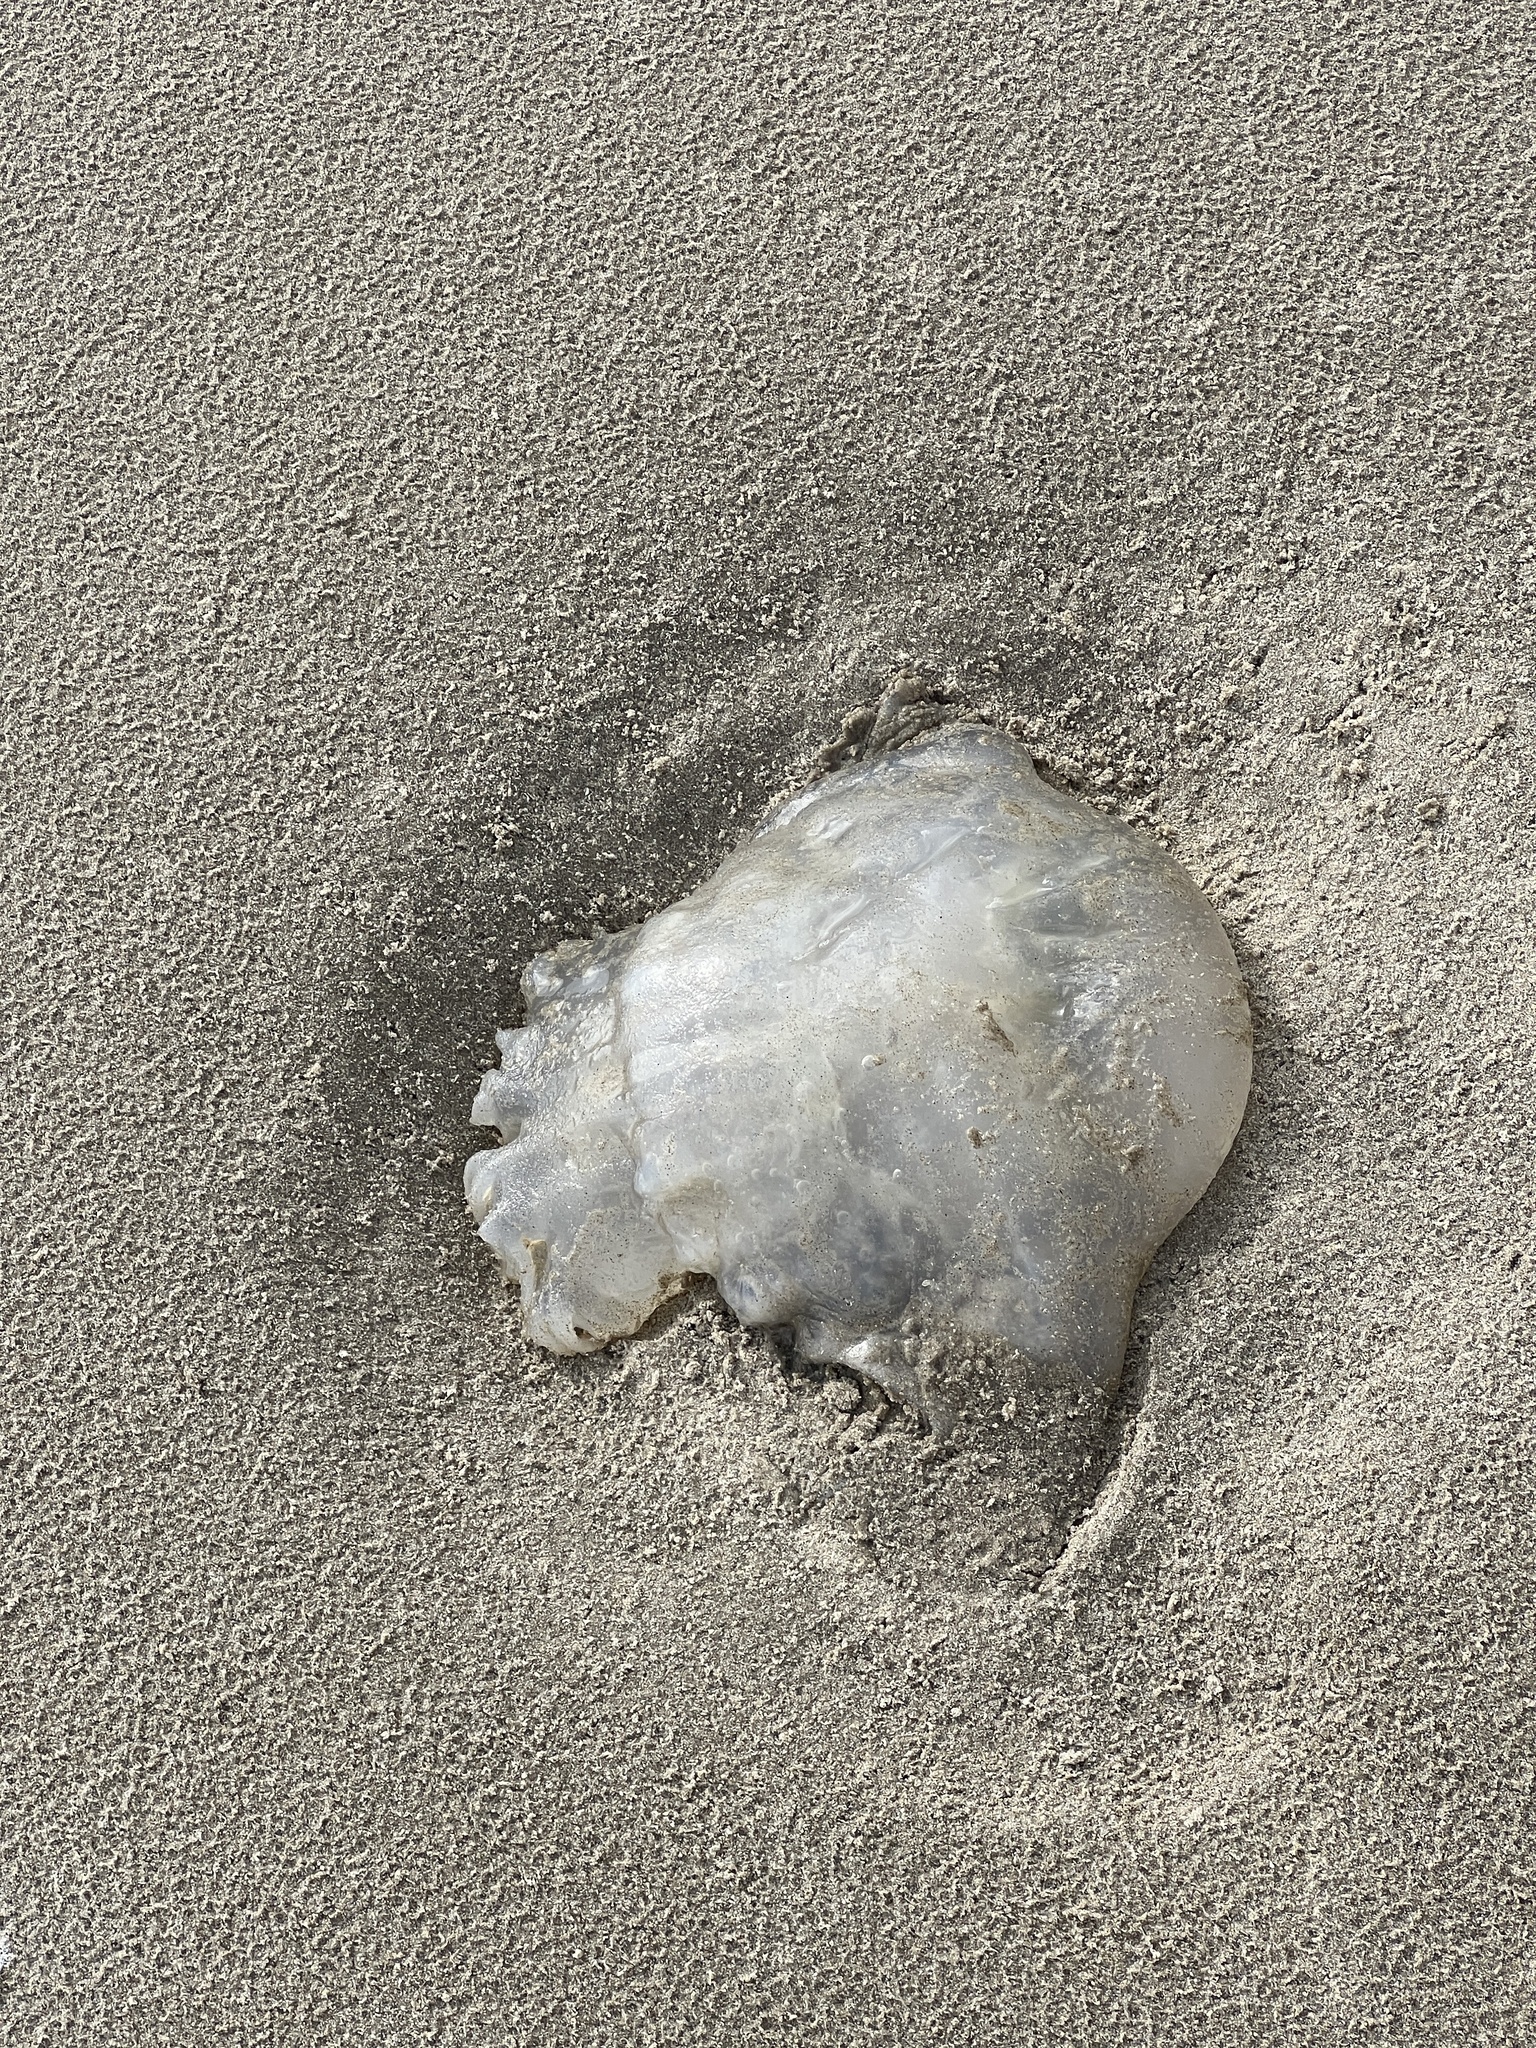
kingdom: Animalia
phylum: Cnidaria
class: Scyphozoa
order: Rhizostomeae
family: Stomolophidae
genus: Stomolophus
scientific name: Stomolophus meleagris
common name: Cabbagehead
